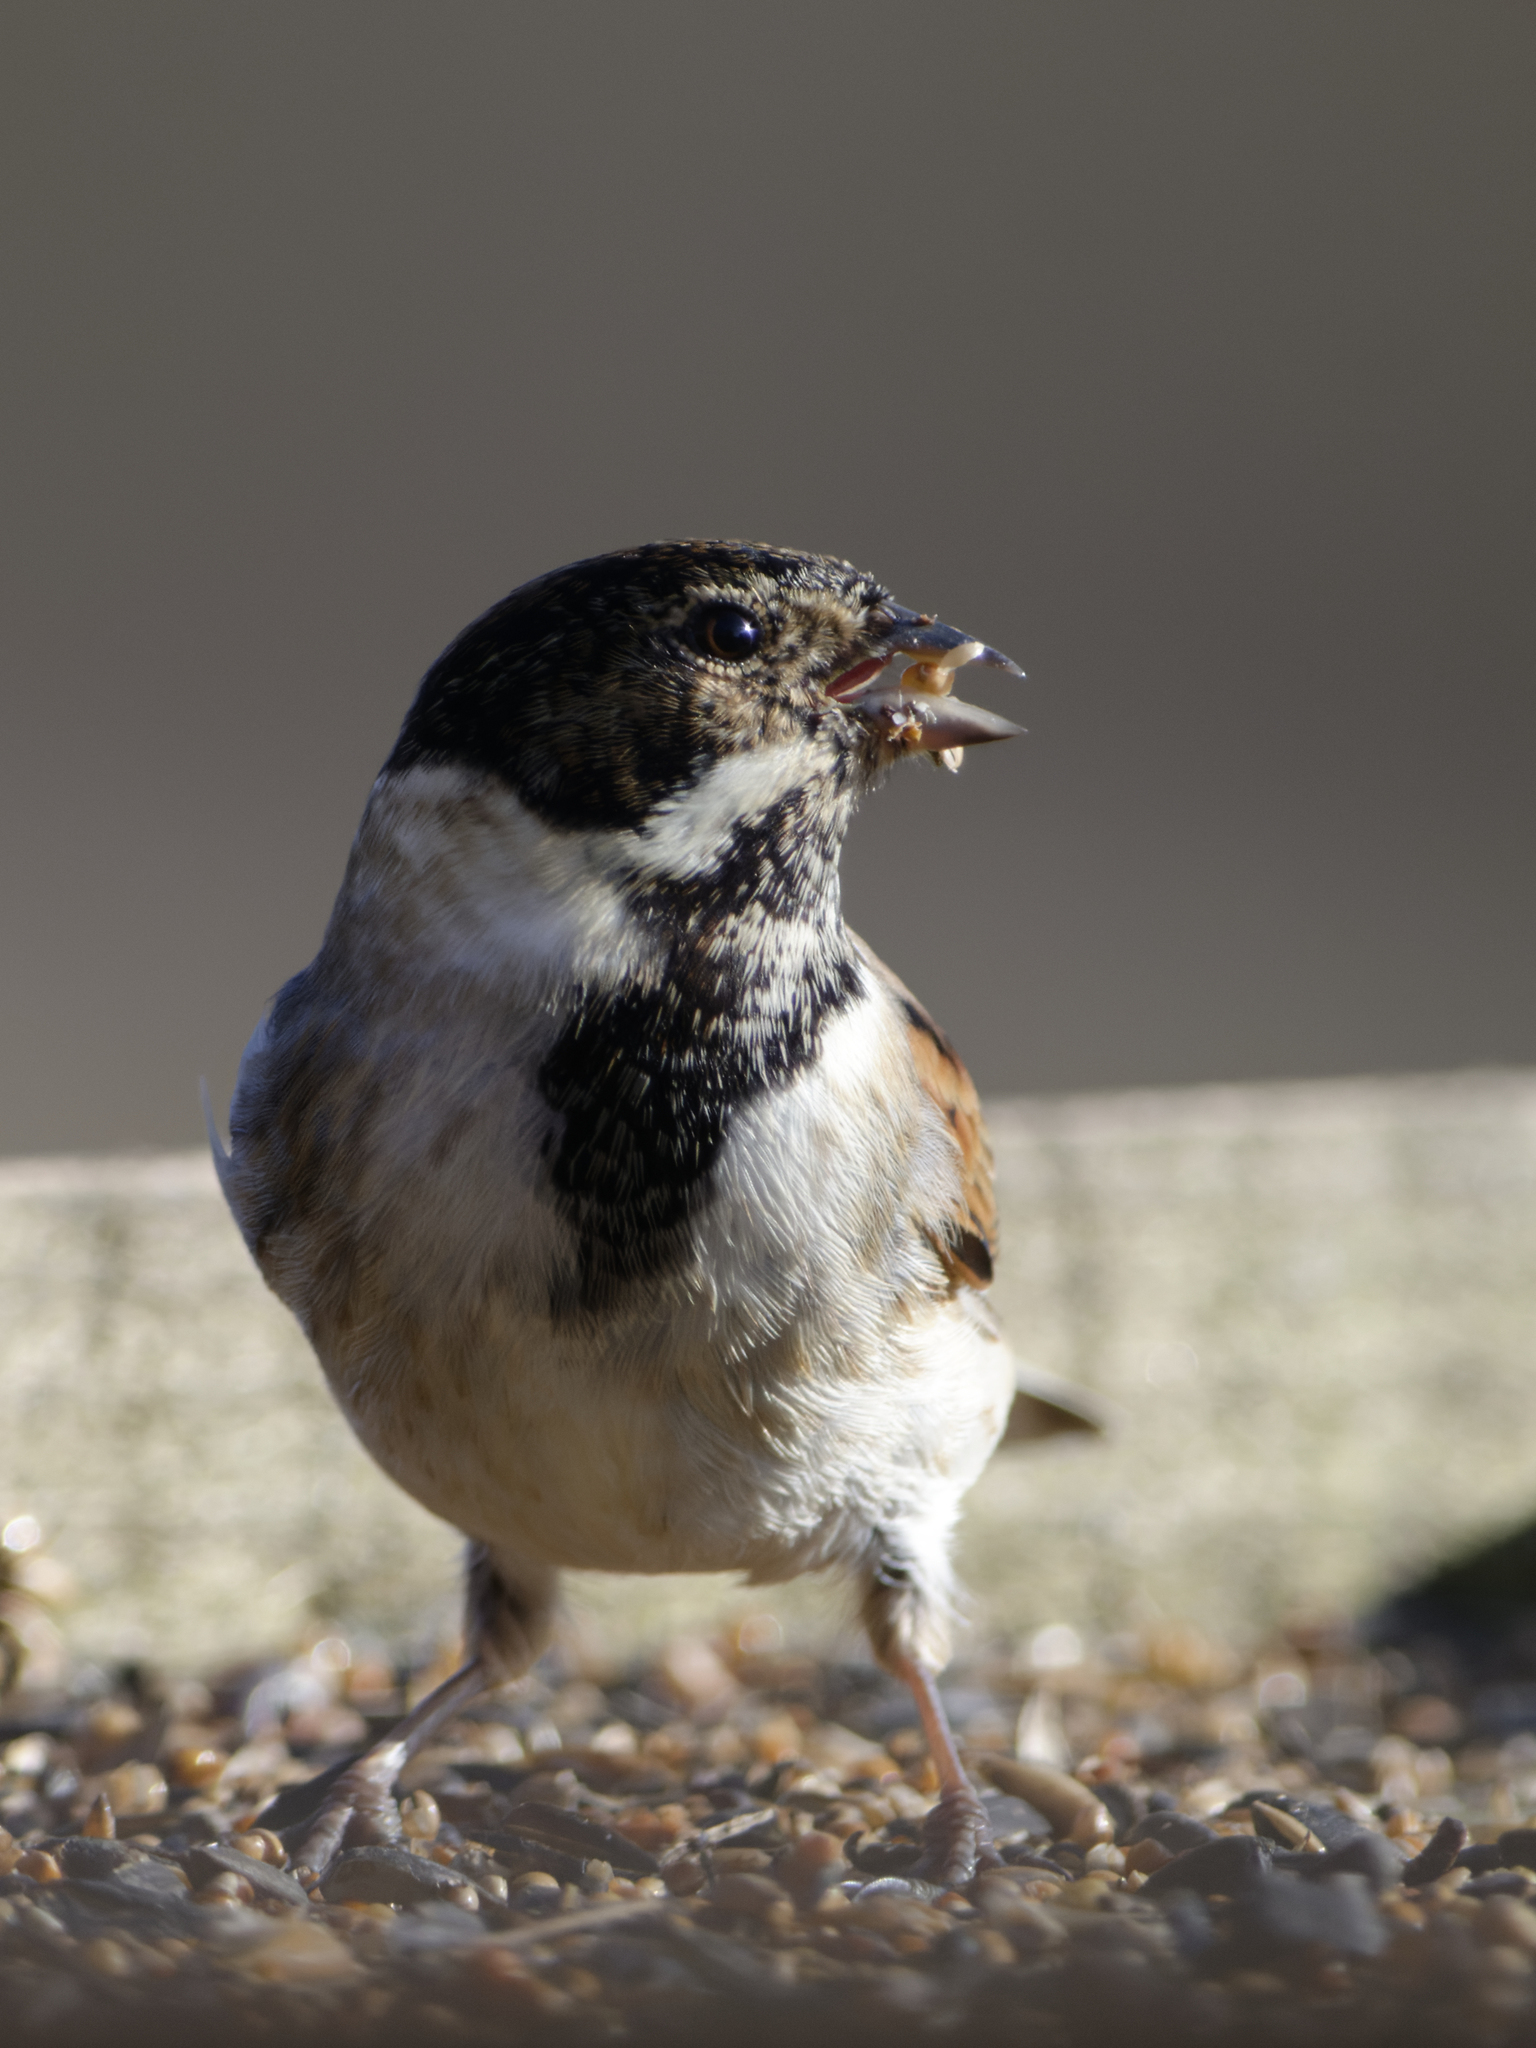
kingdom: Animalia
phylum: Chordata
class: Aves
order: Passeriformes
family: Emberizidae
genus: Emberiza
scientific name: Emberiza schoeniclus
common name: Reed bunting
